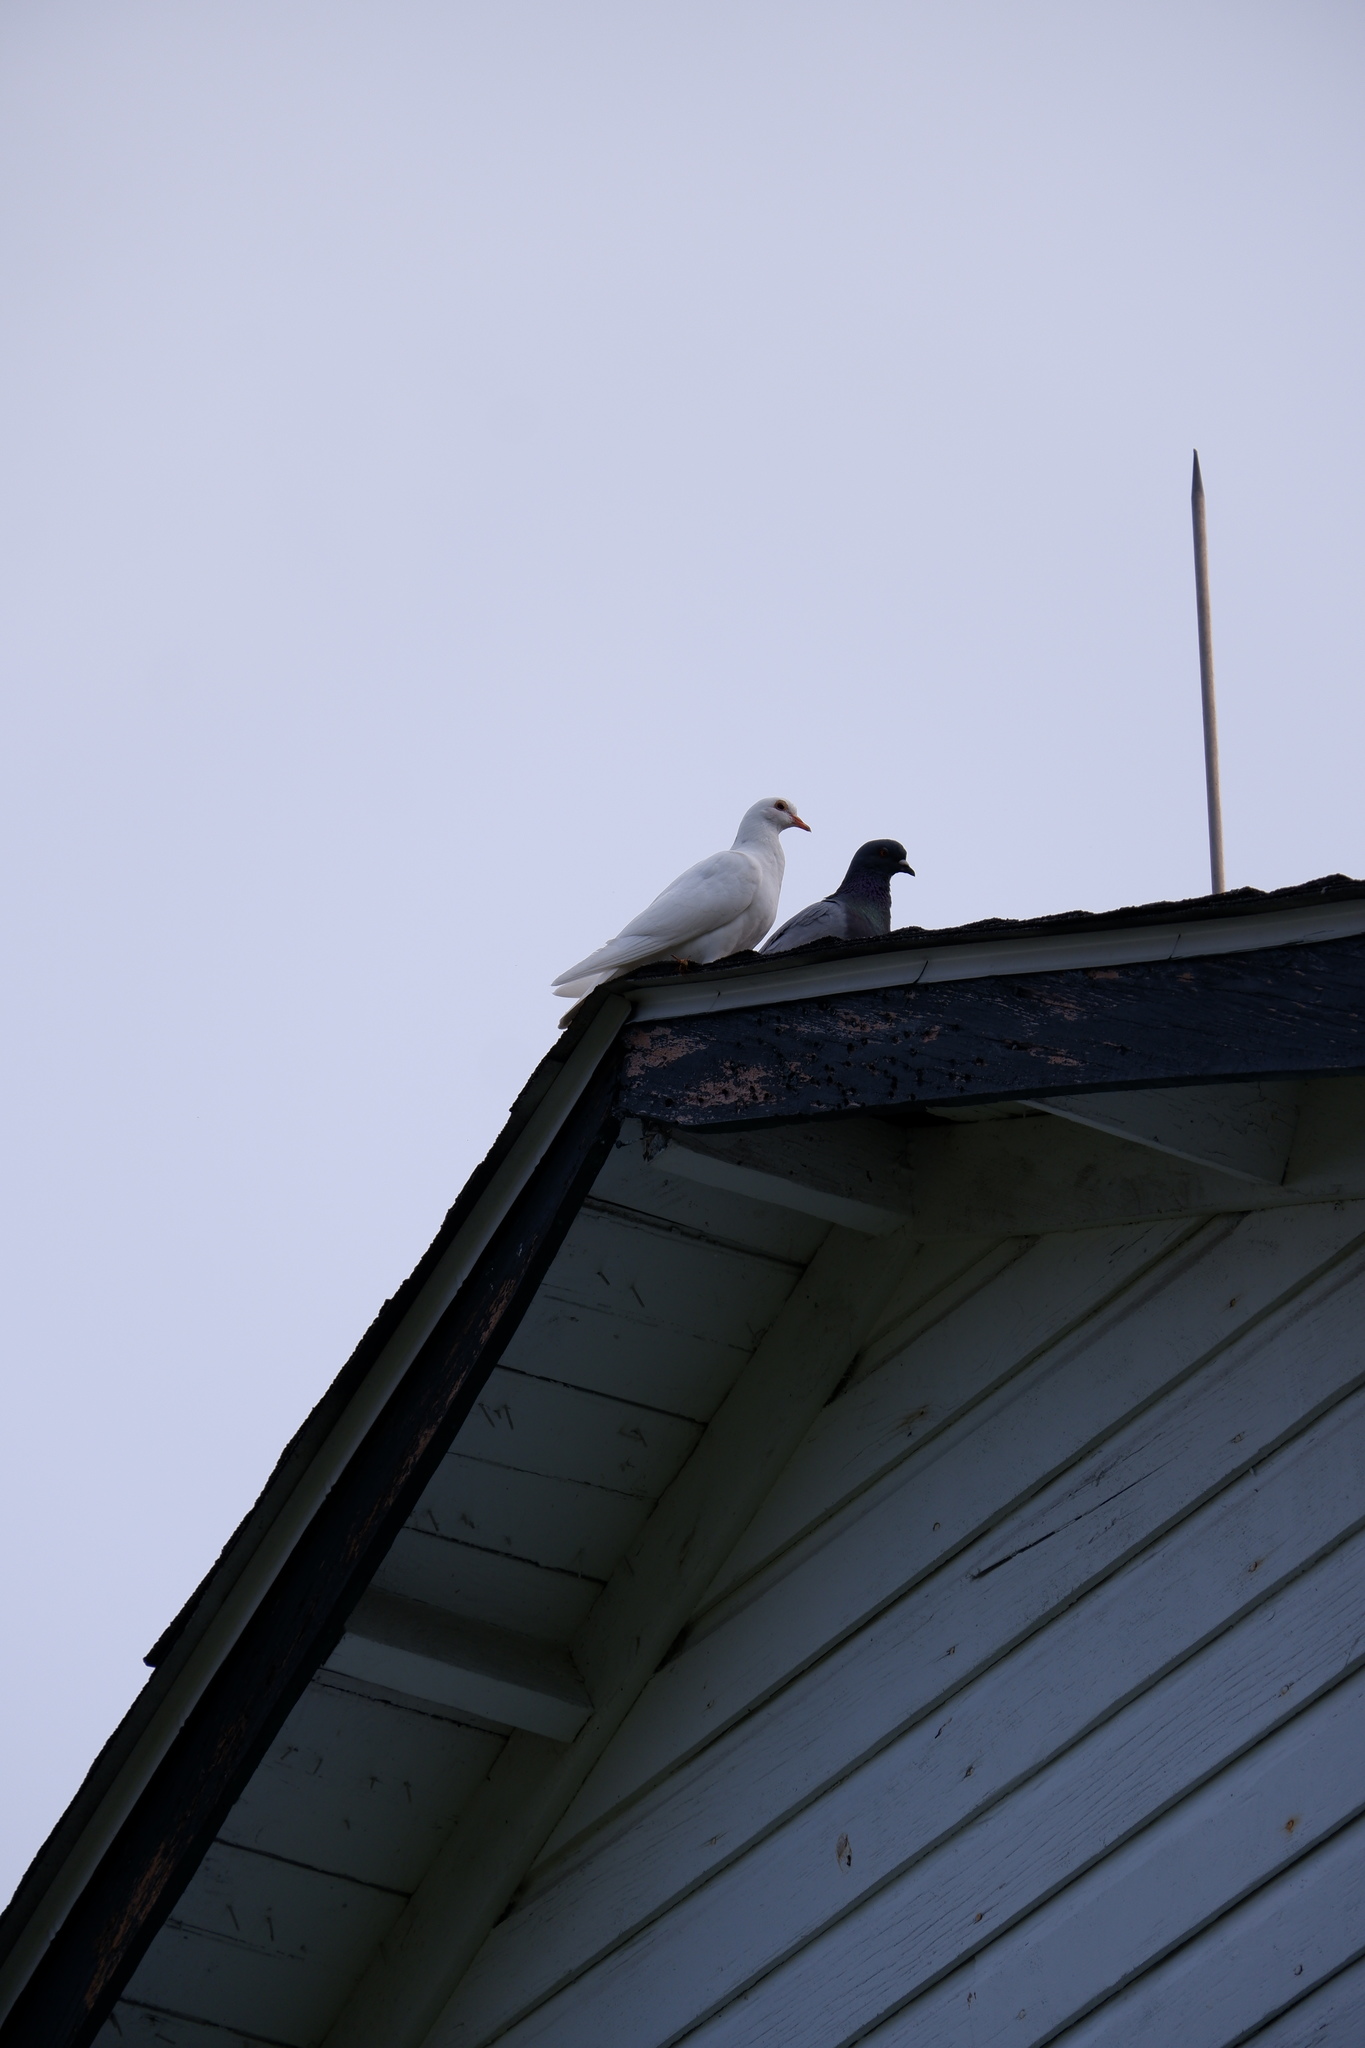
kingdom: Animalia
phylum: Chordata
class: Aves
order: Columbiformes
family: Columbidae
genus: Columba
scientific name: Columba livia
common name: Rock pigeon
